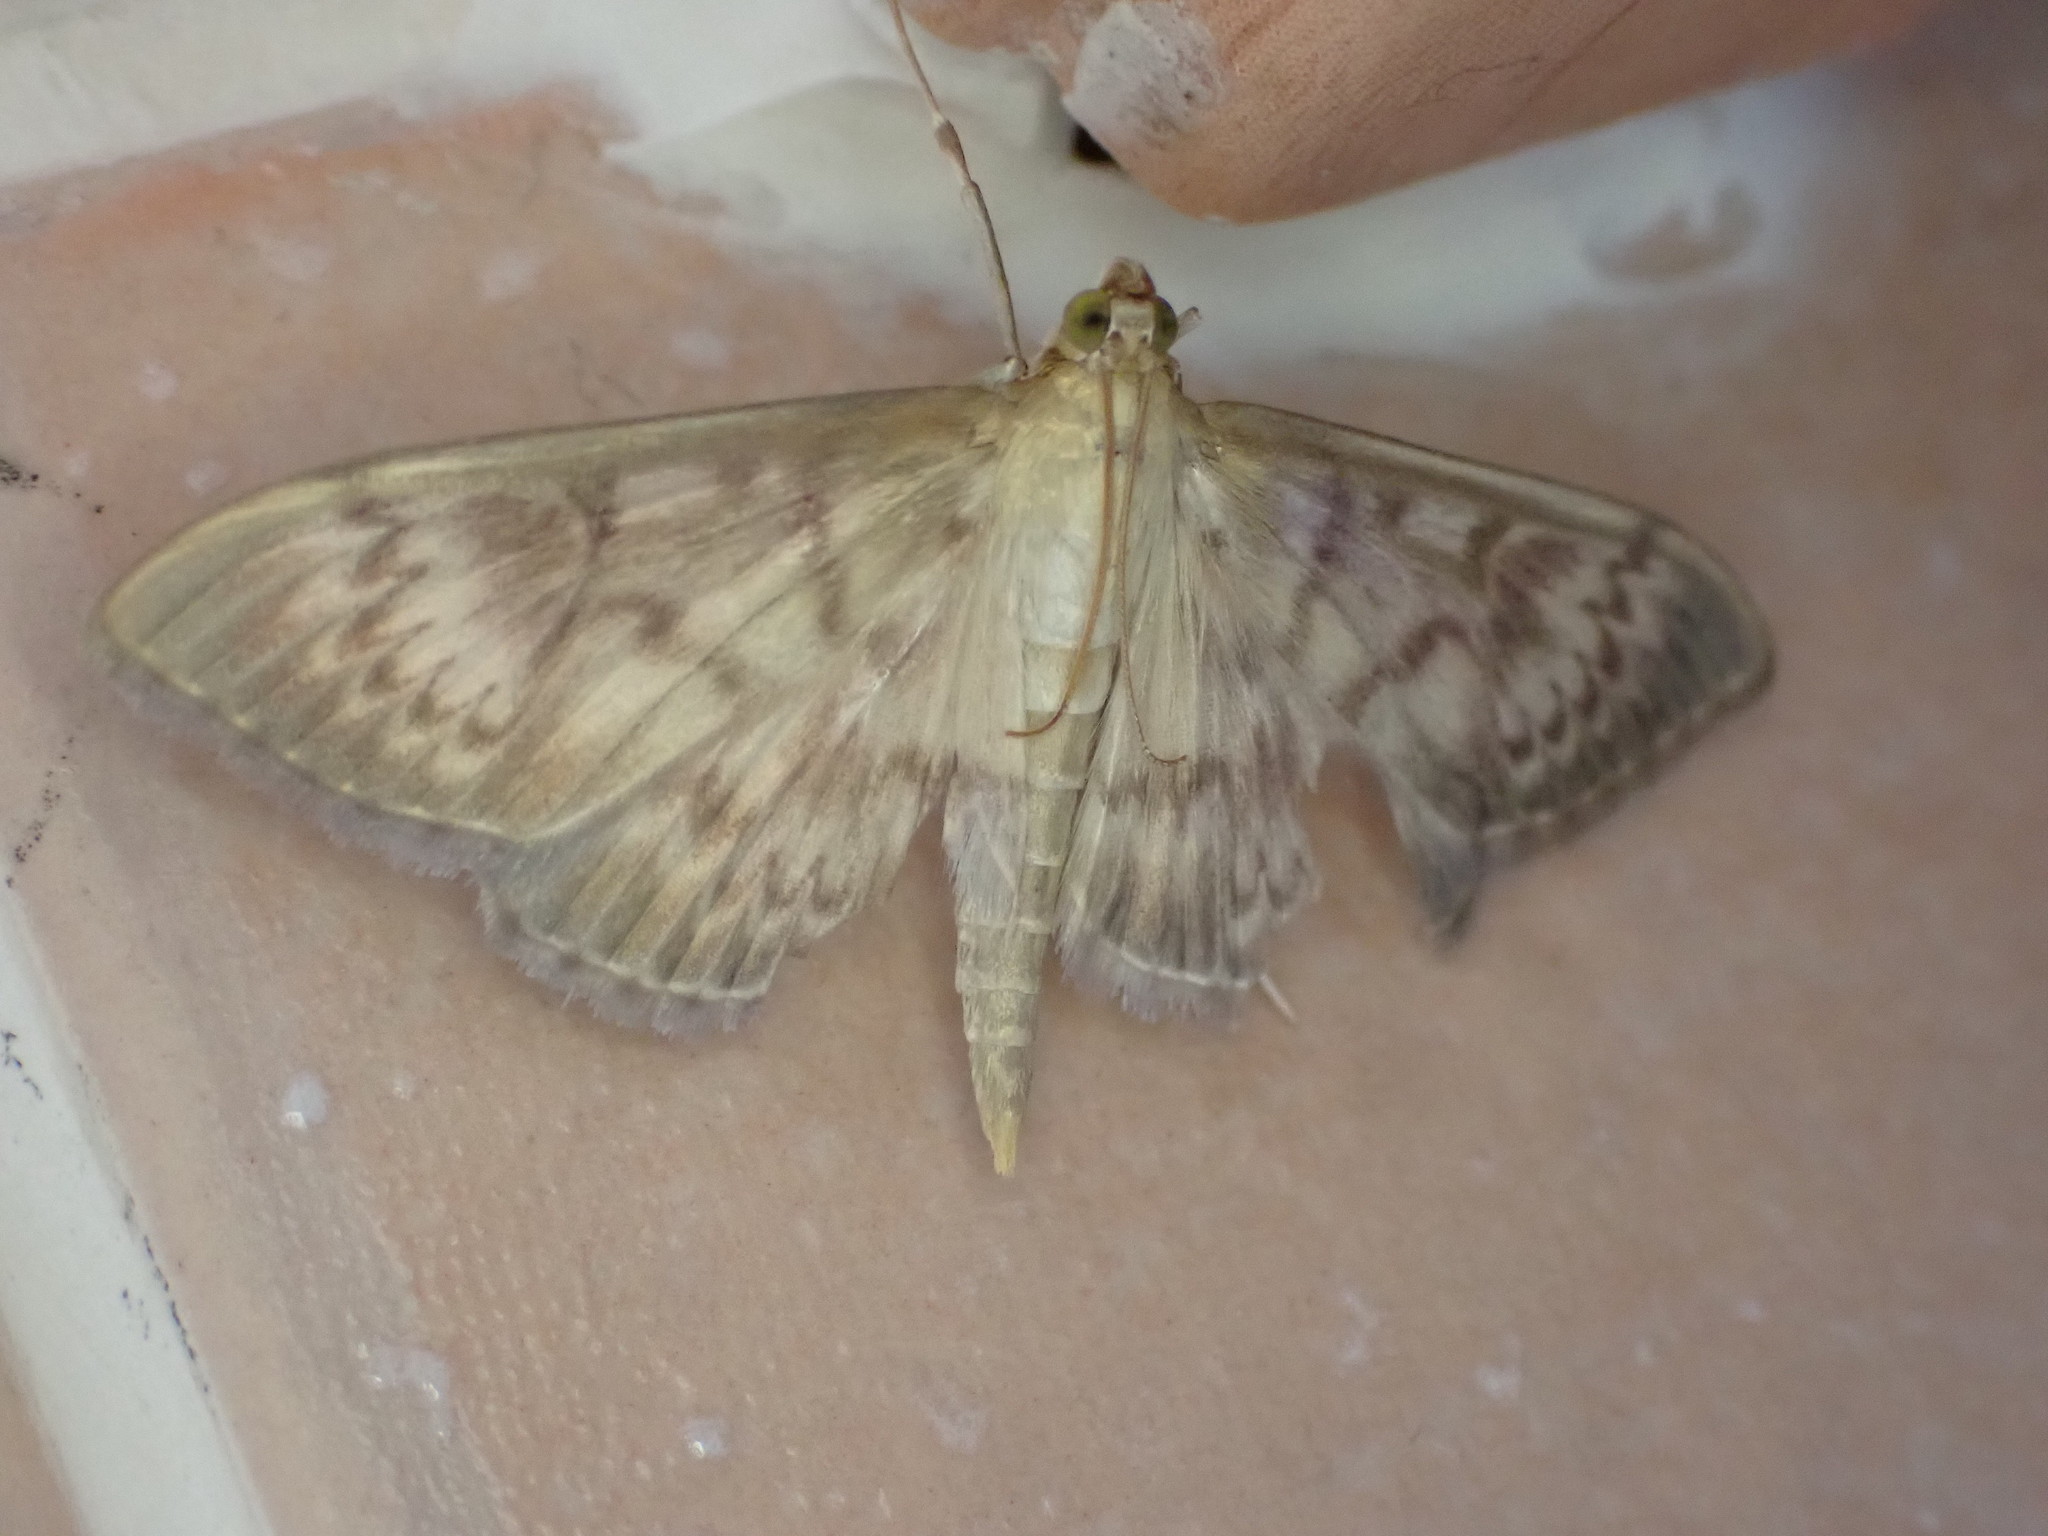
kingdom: Animalia
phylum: Arthropoda
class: Insecta
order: Lepidoptera
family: Crambidae
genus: Patania
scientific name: Patania ruralis
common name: Mother of pearl
